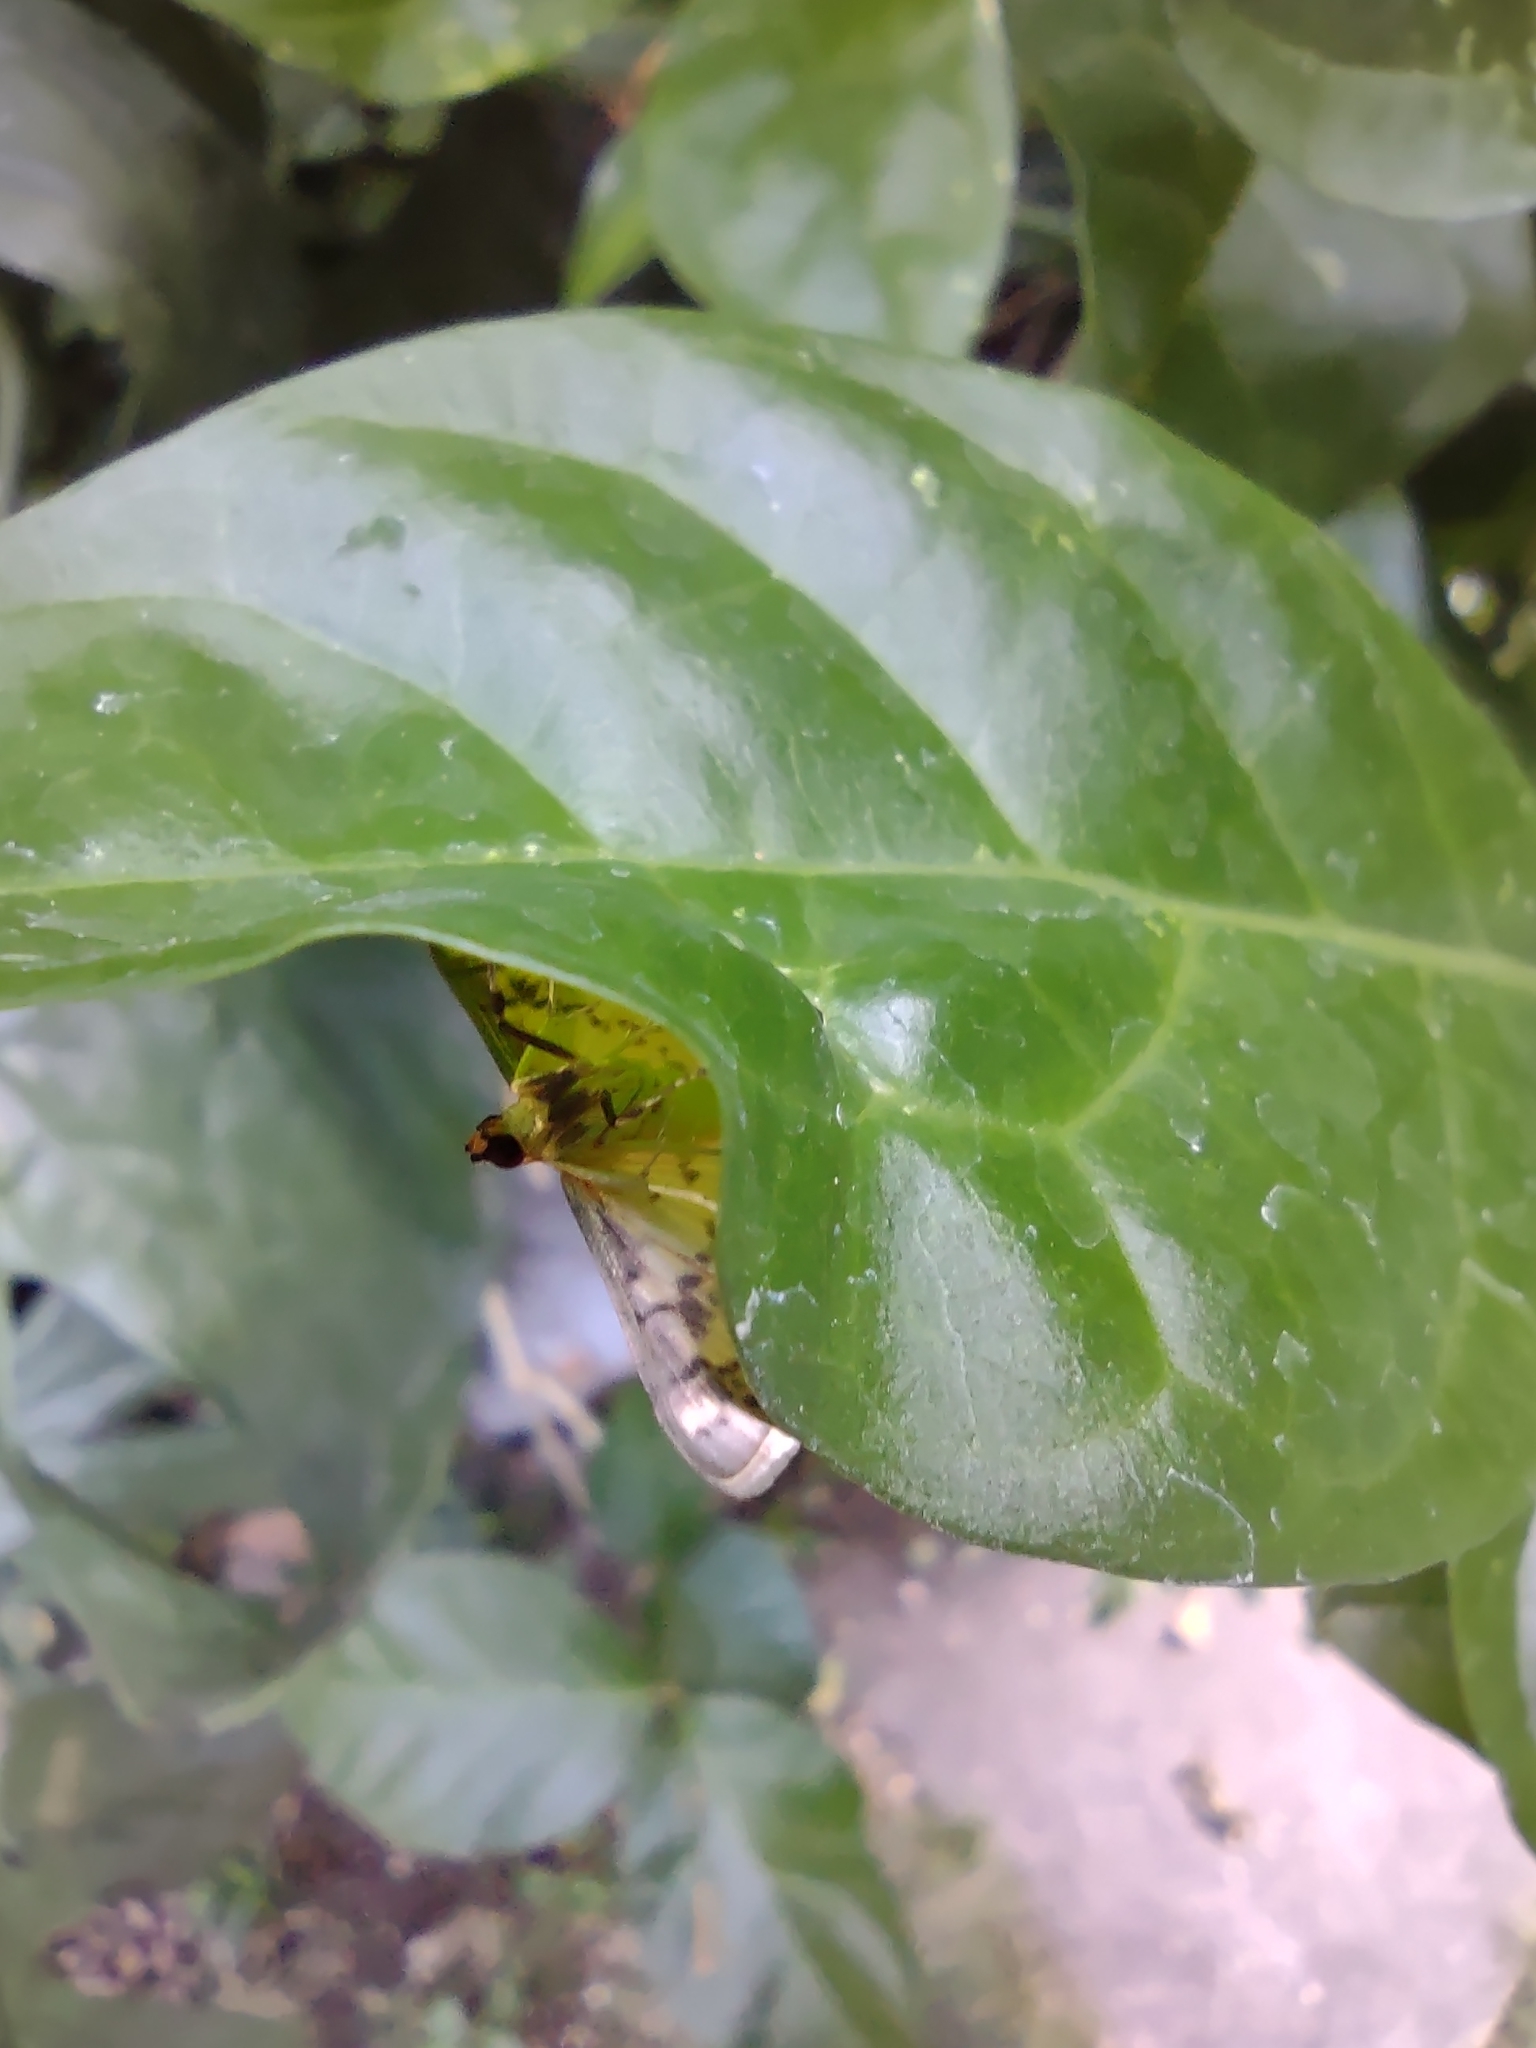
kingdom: Animalia
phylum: Arthropoda
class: Insecta
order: Lepidoptera
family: Crambidae
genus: Conogethes
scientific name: Conogethes punctiferalis
